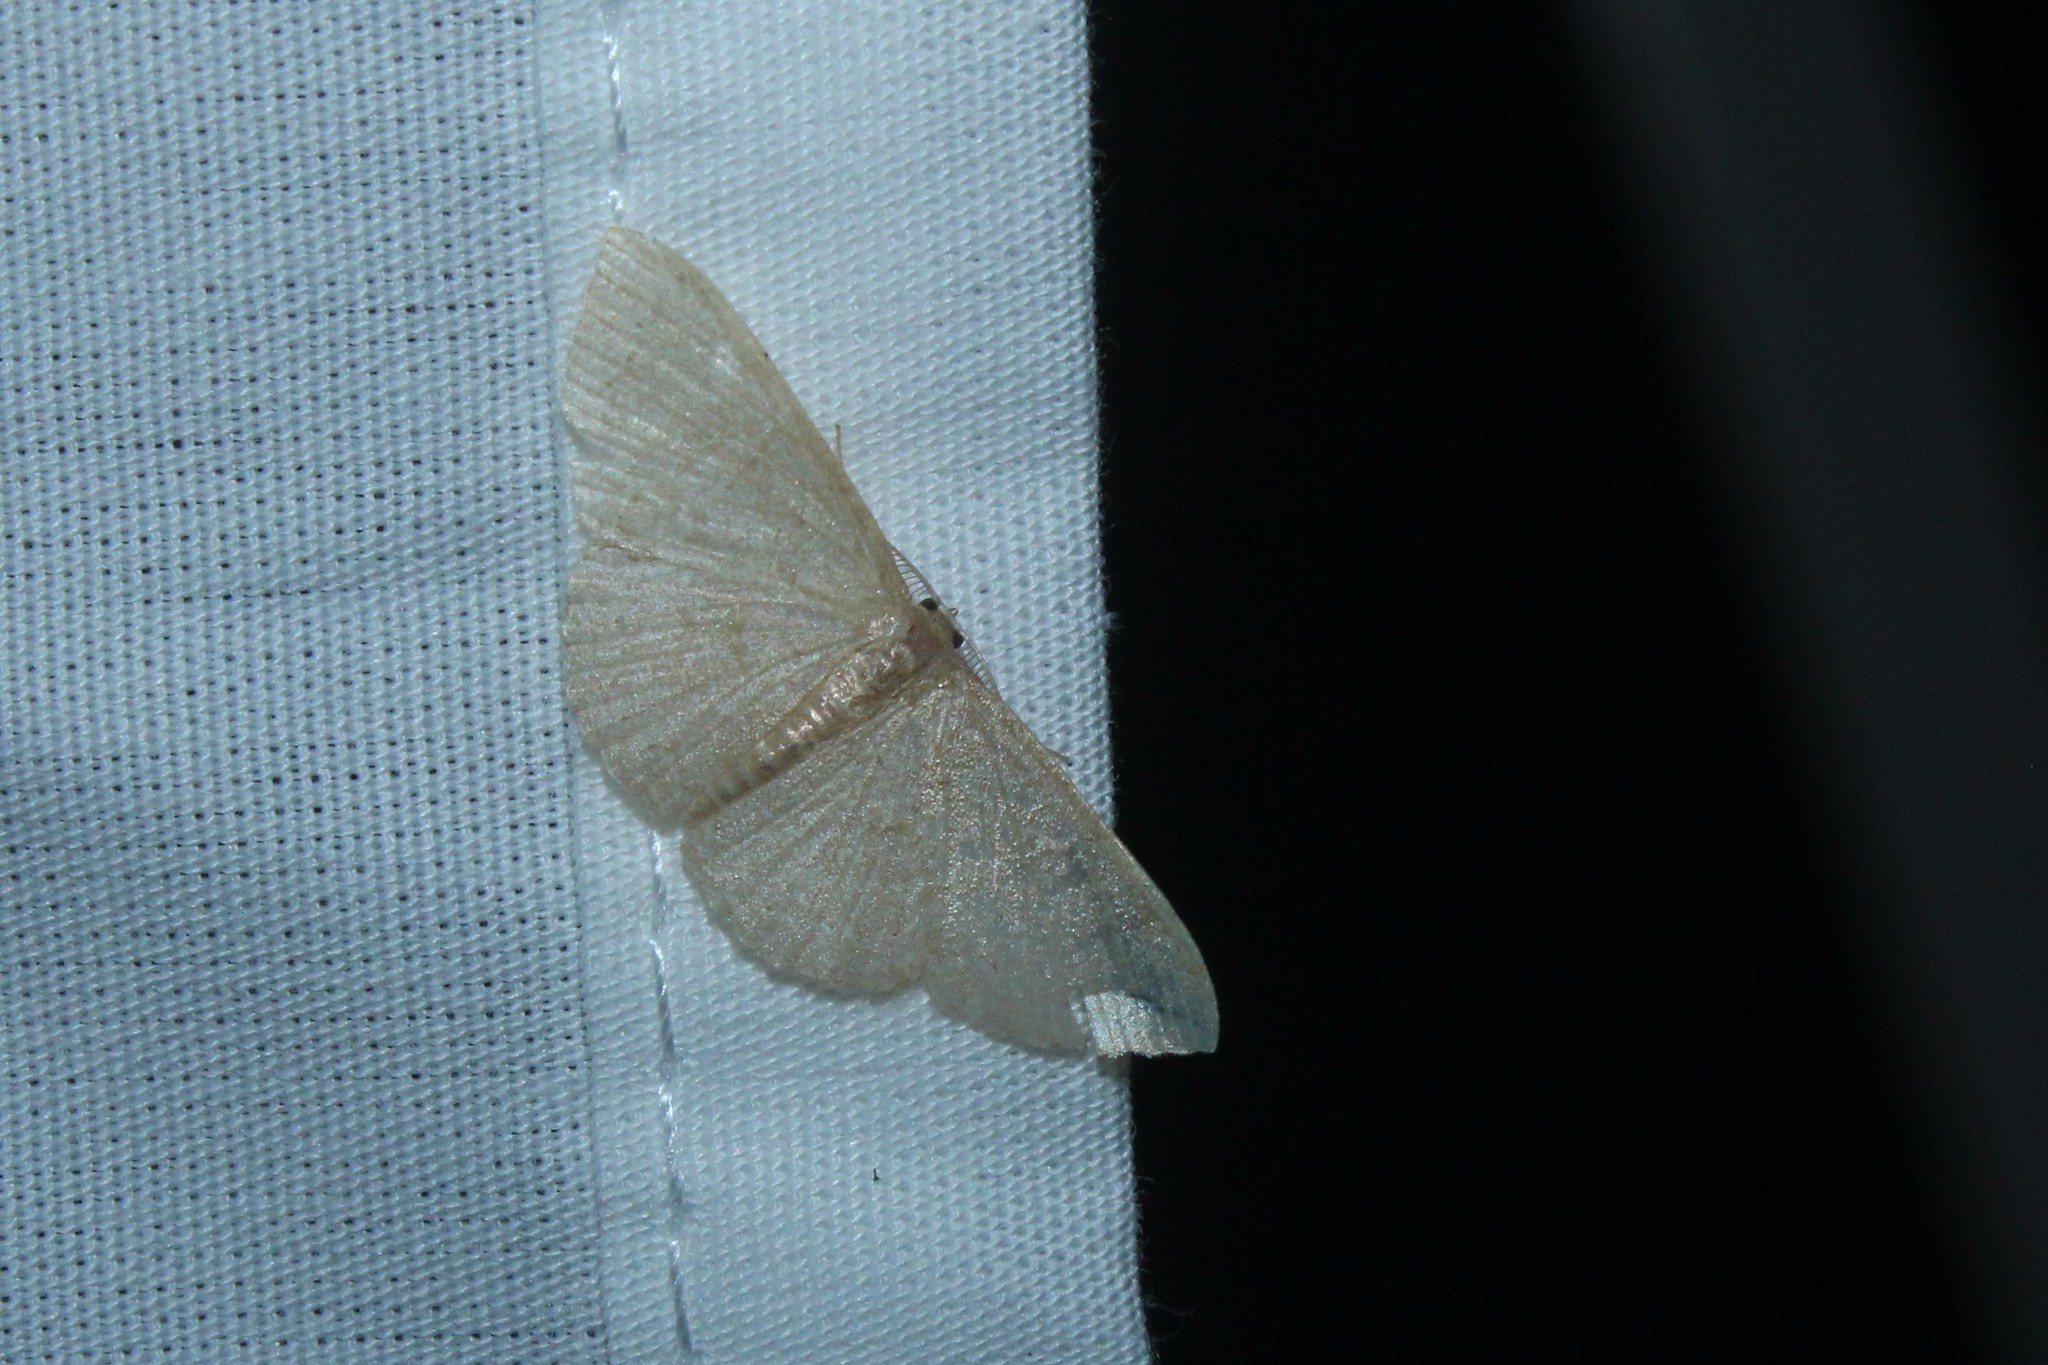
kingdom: Animalia
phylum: Arthropoda
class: Insecta
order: Lepidoptera
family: Geometridae
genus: Pleuroprucha
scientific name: Pleuroprucha insulsaria
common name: Common tan wave
